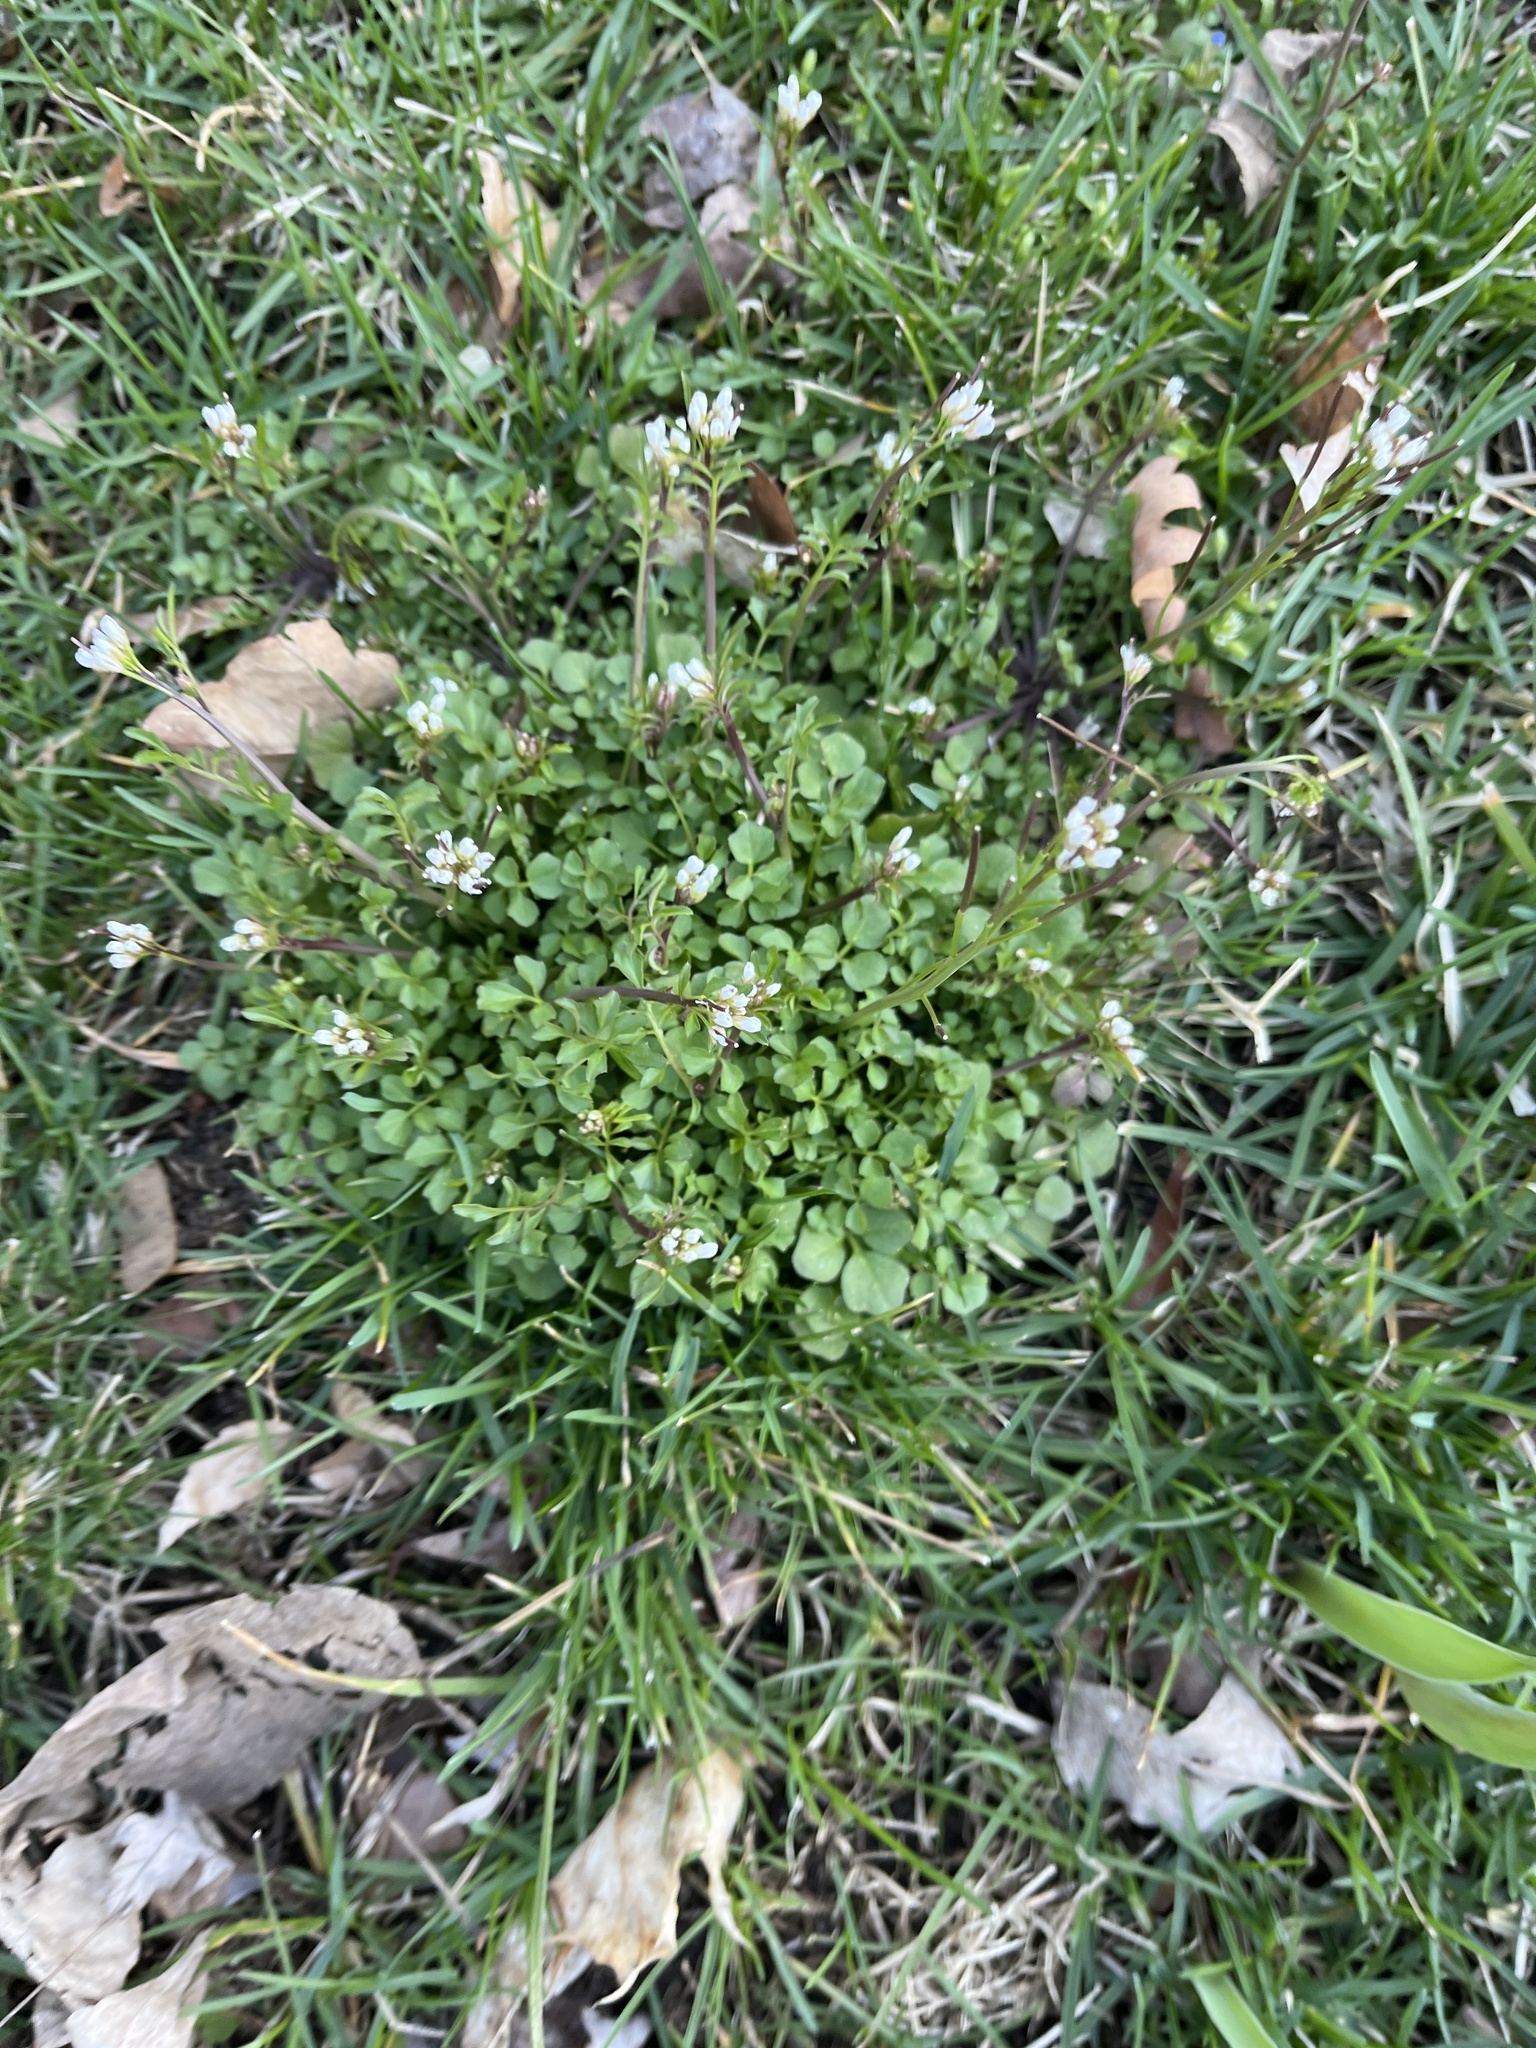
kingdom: Plantae
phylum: Tracheophyta
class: Magnoliopsida
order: Brassicales
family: Brassicaceae
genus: Cardamine
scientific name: Cardamine hirsuta
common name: Hairy bittercress
